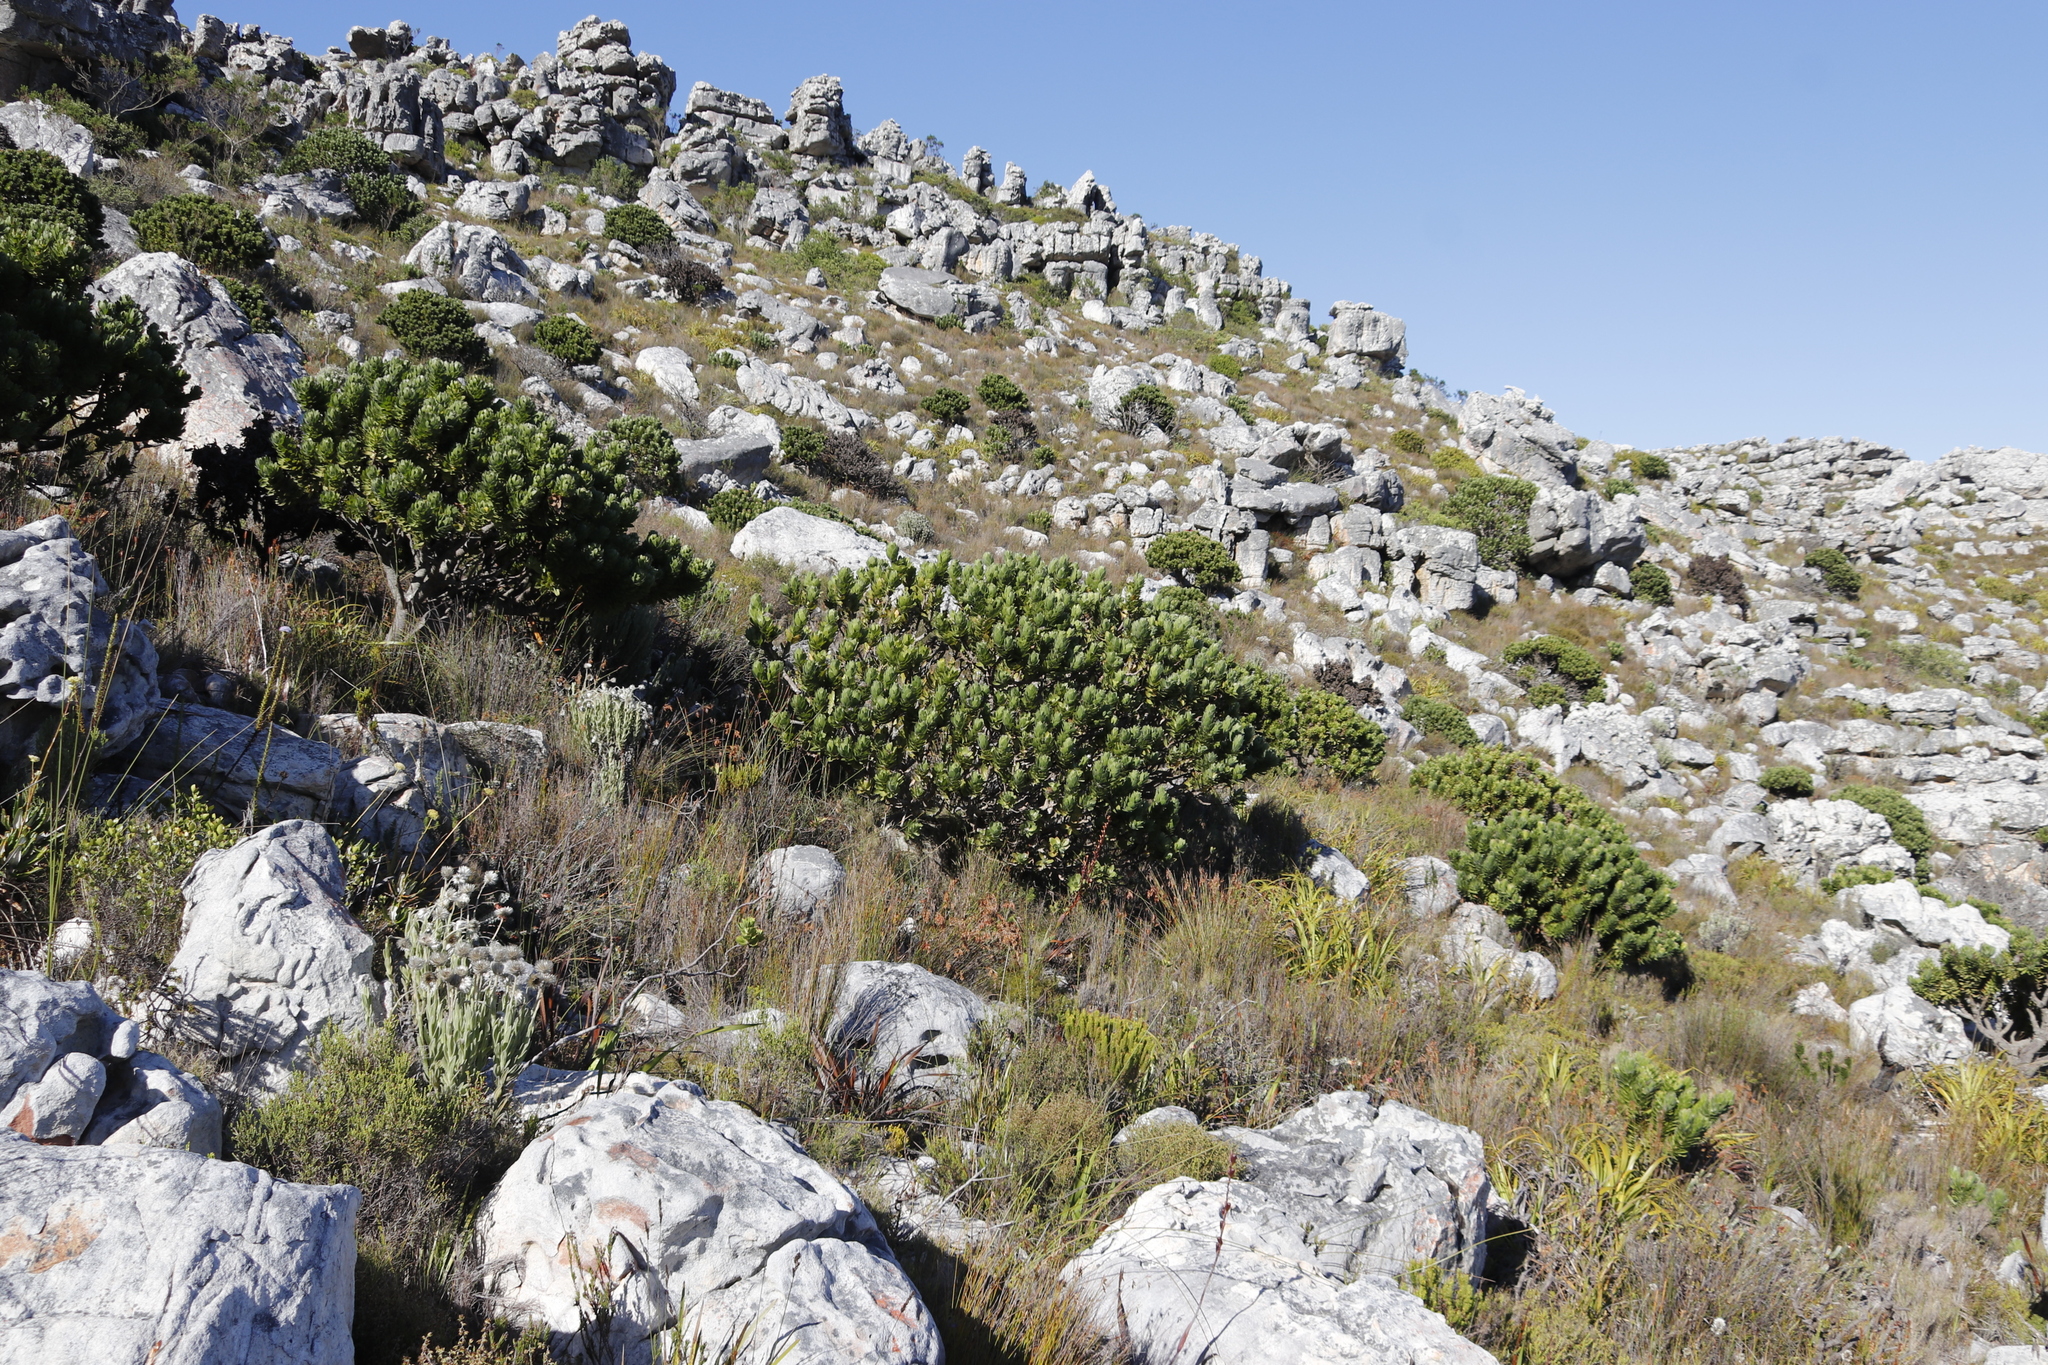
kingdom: Plantae
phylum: Tracheophyta
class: Magnoliopsida
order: Proteales
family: Proteaceae
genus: Leucospermum
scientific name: Leucospermum conocarpodendron
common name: Tree pincushion
